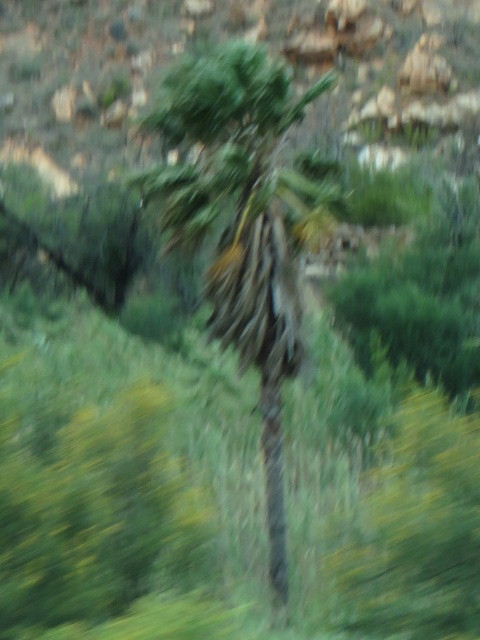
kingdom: Plantae
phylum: Tracheophyta
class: Liliopsida
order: Arecales
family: Arecaceae
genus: Washingtonia
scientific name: Washingtonia robusta
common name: Mexican fan palm
